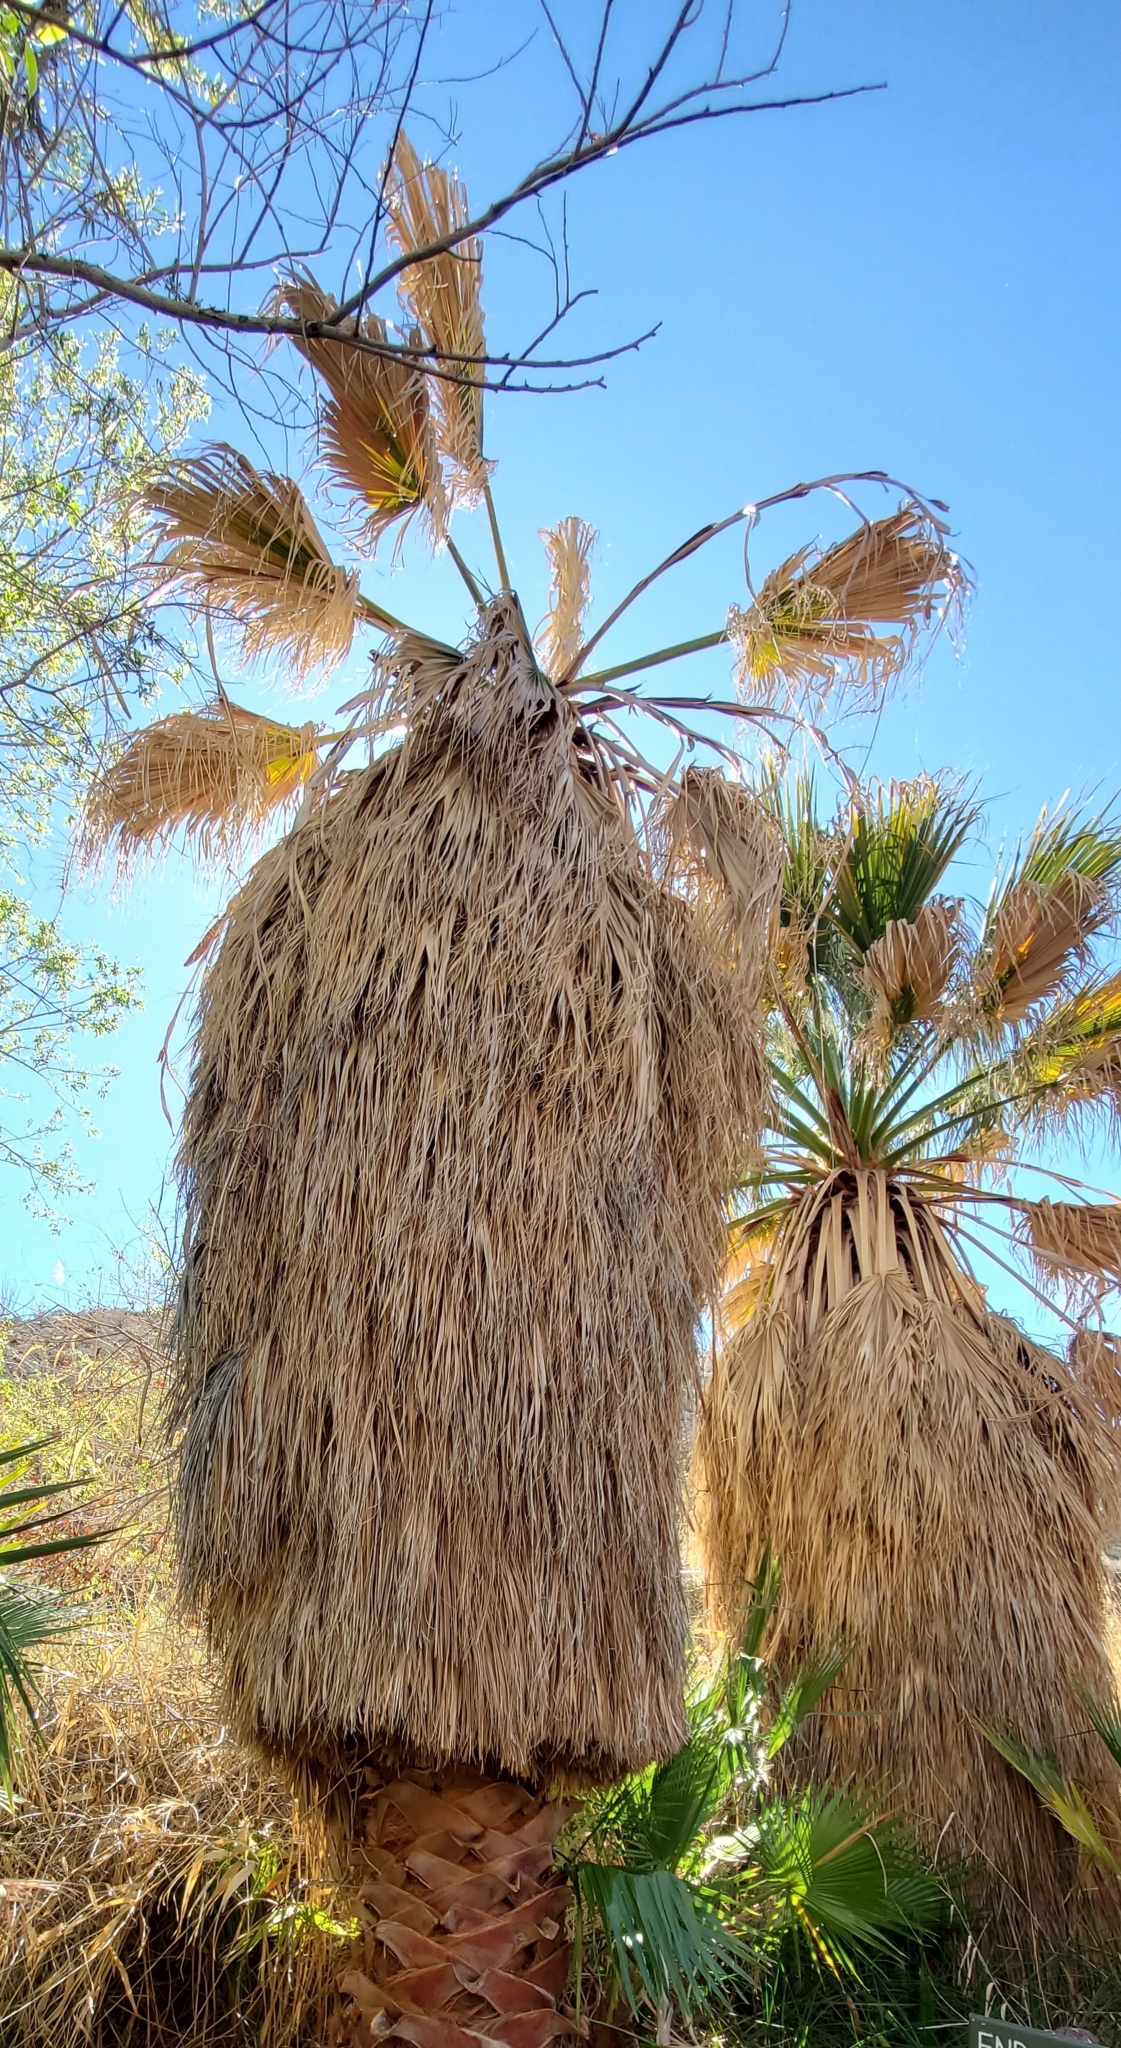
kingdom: Plantae
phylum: Tracheophyta
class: Liliopsida
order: Arecales
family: Arecaceae
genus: Washingtonia
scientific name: Washingtonia filifera
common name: California fan palm
